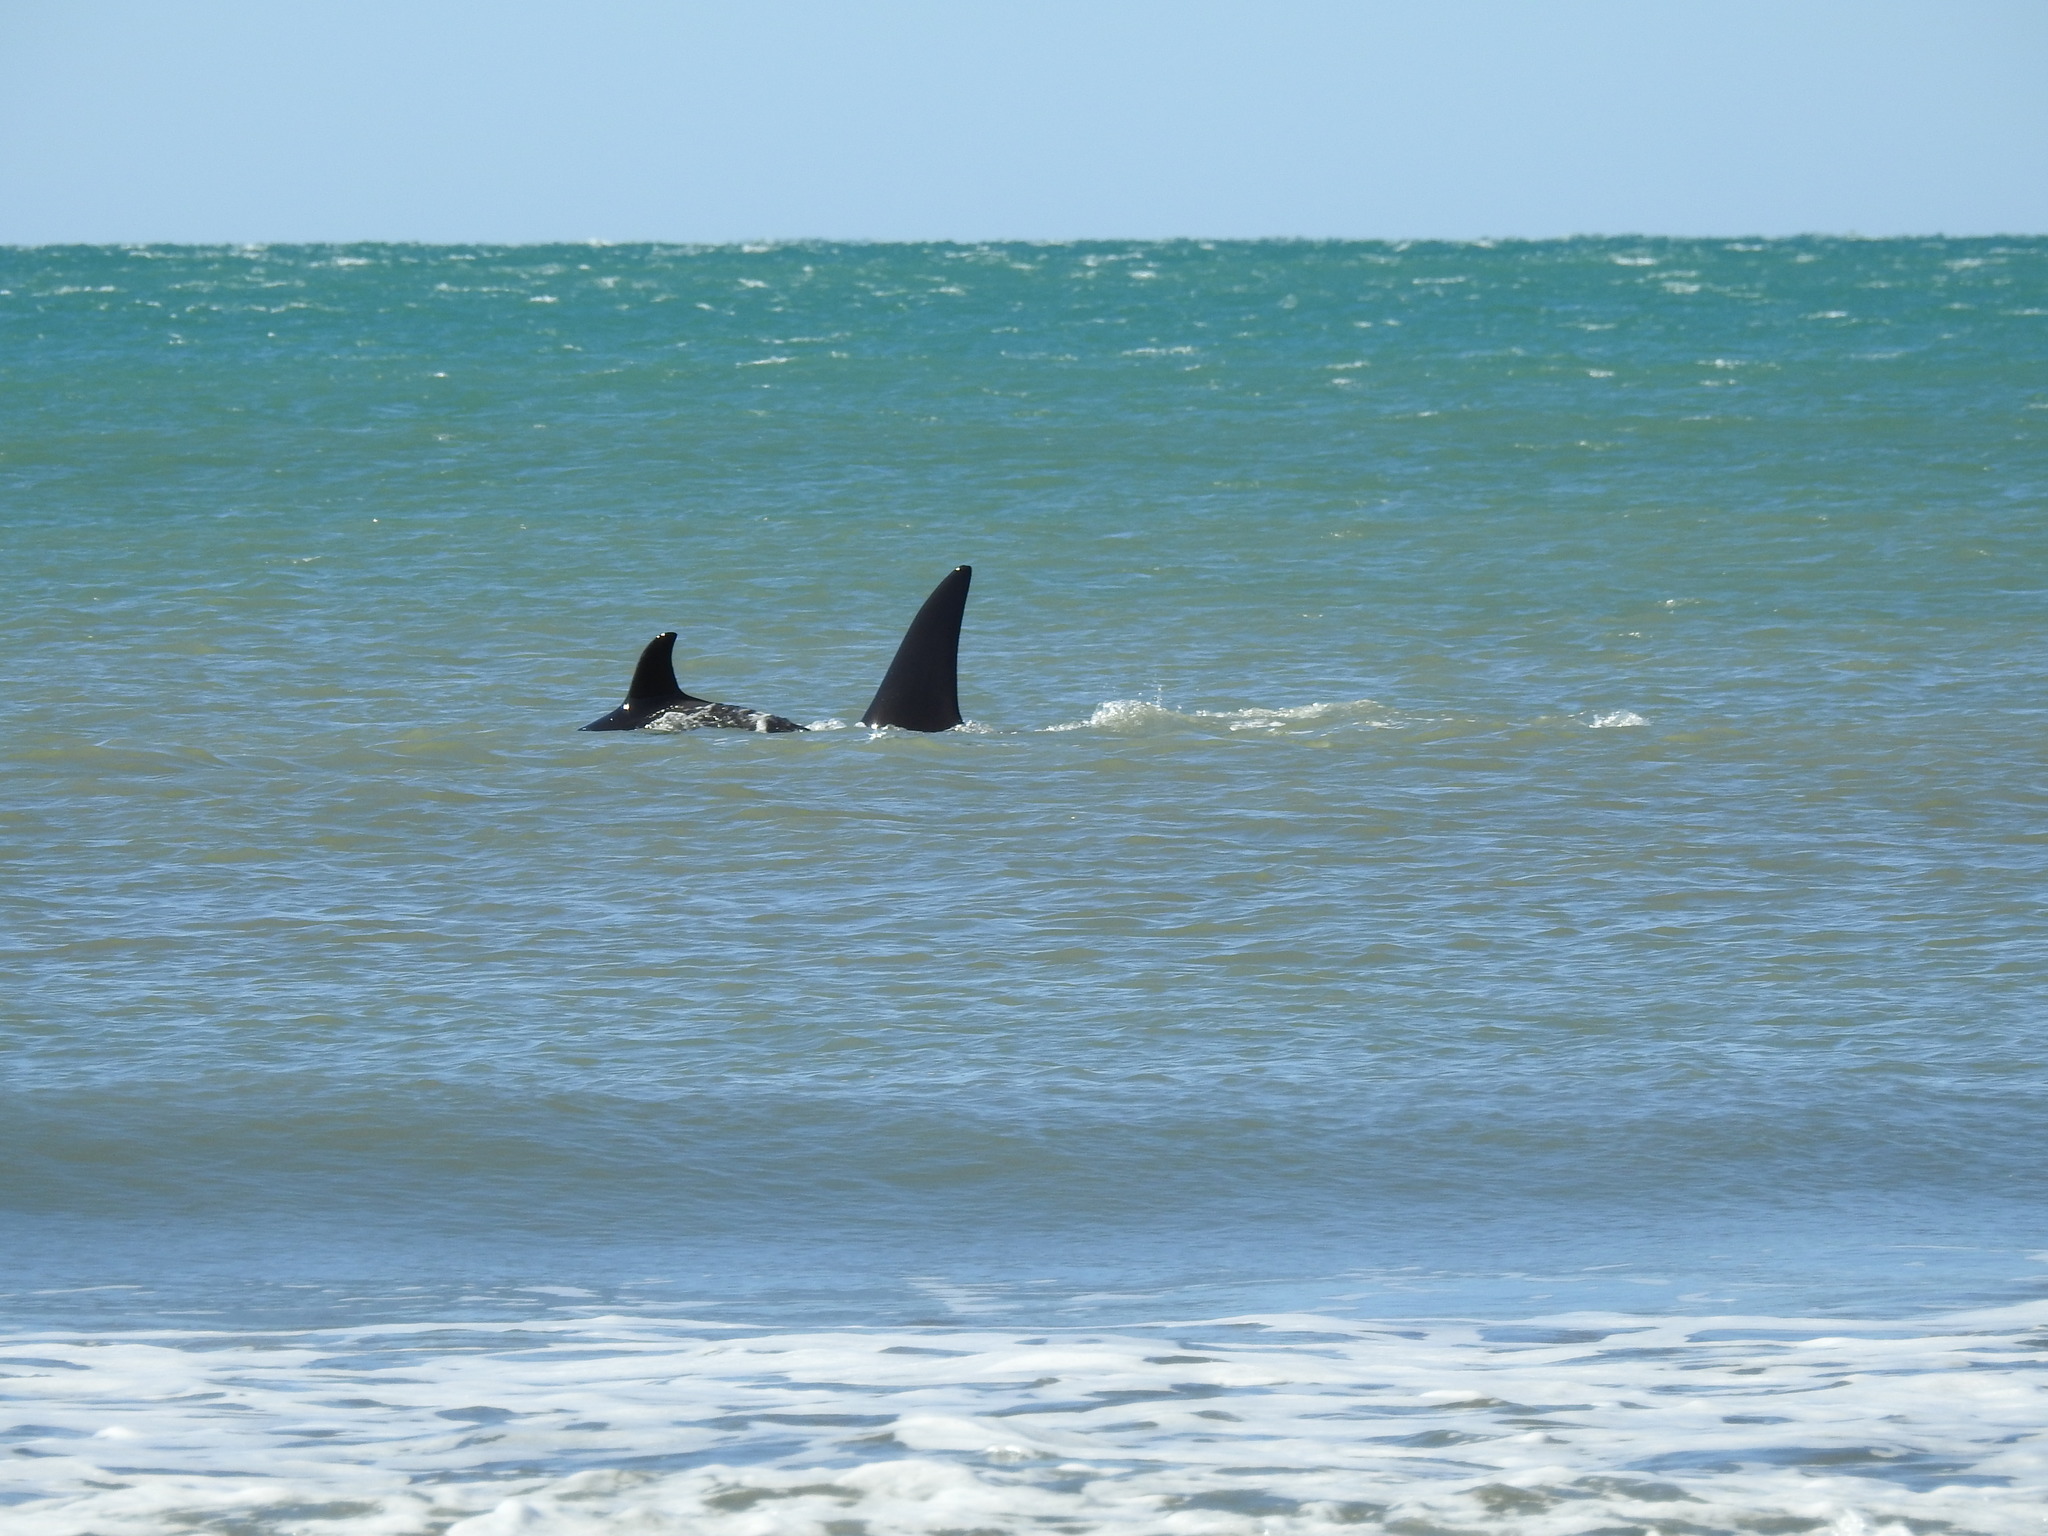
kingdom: Animalia
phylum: Chordata
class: Mammalia
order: Cetacea
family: Delphinidae
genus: Orcinus
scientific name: Orcinus orca
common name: Killer whale
